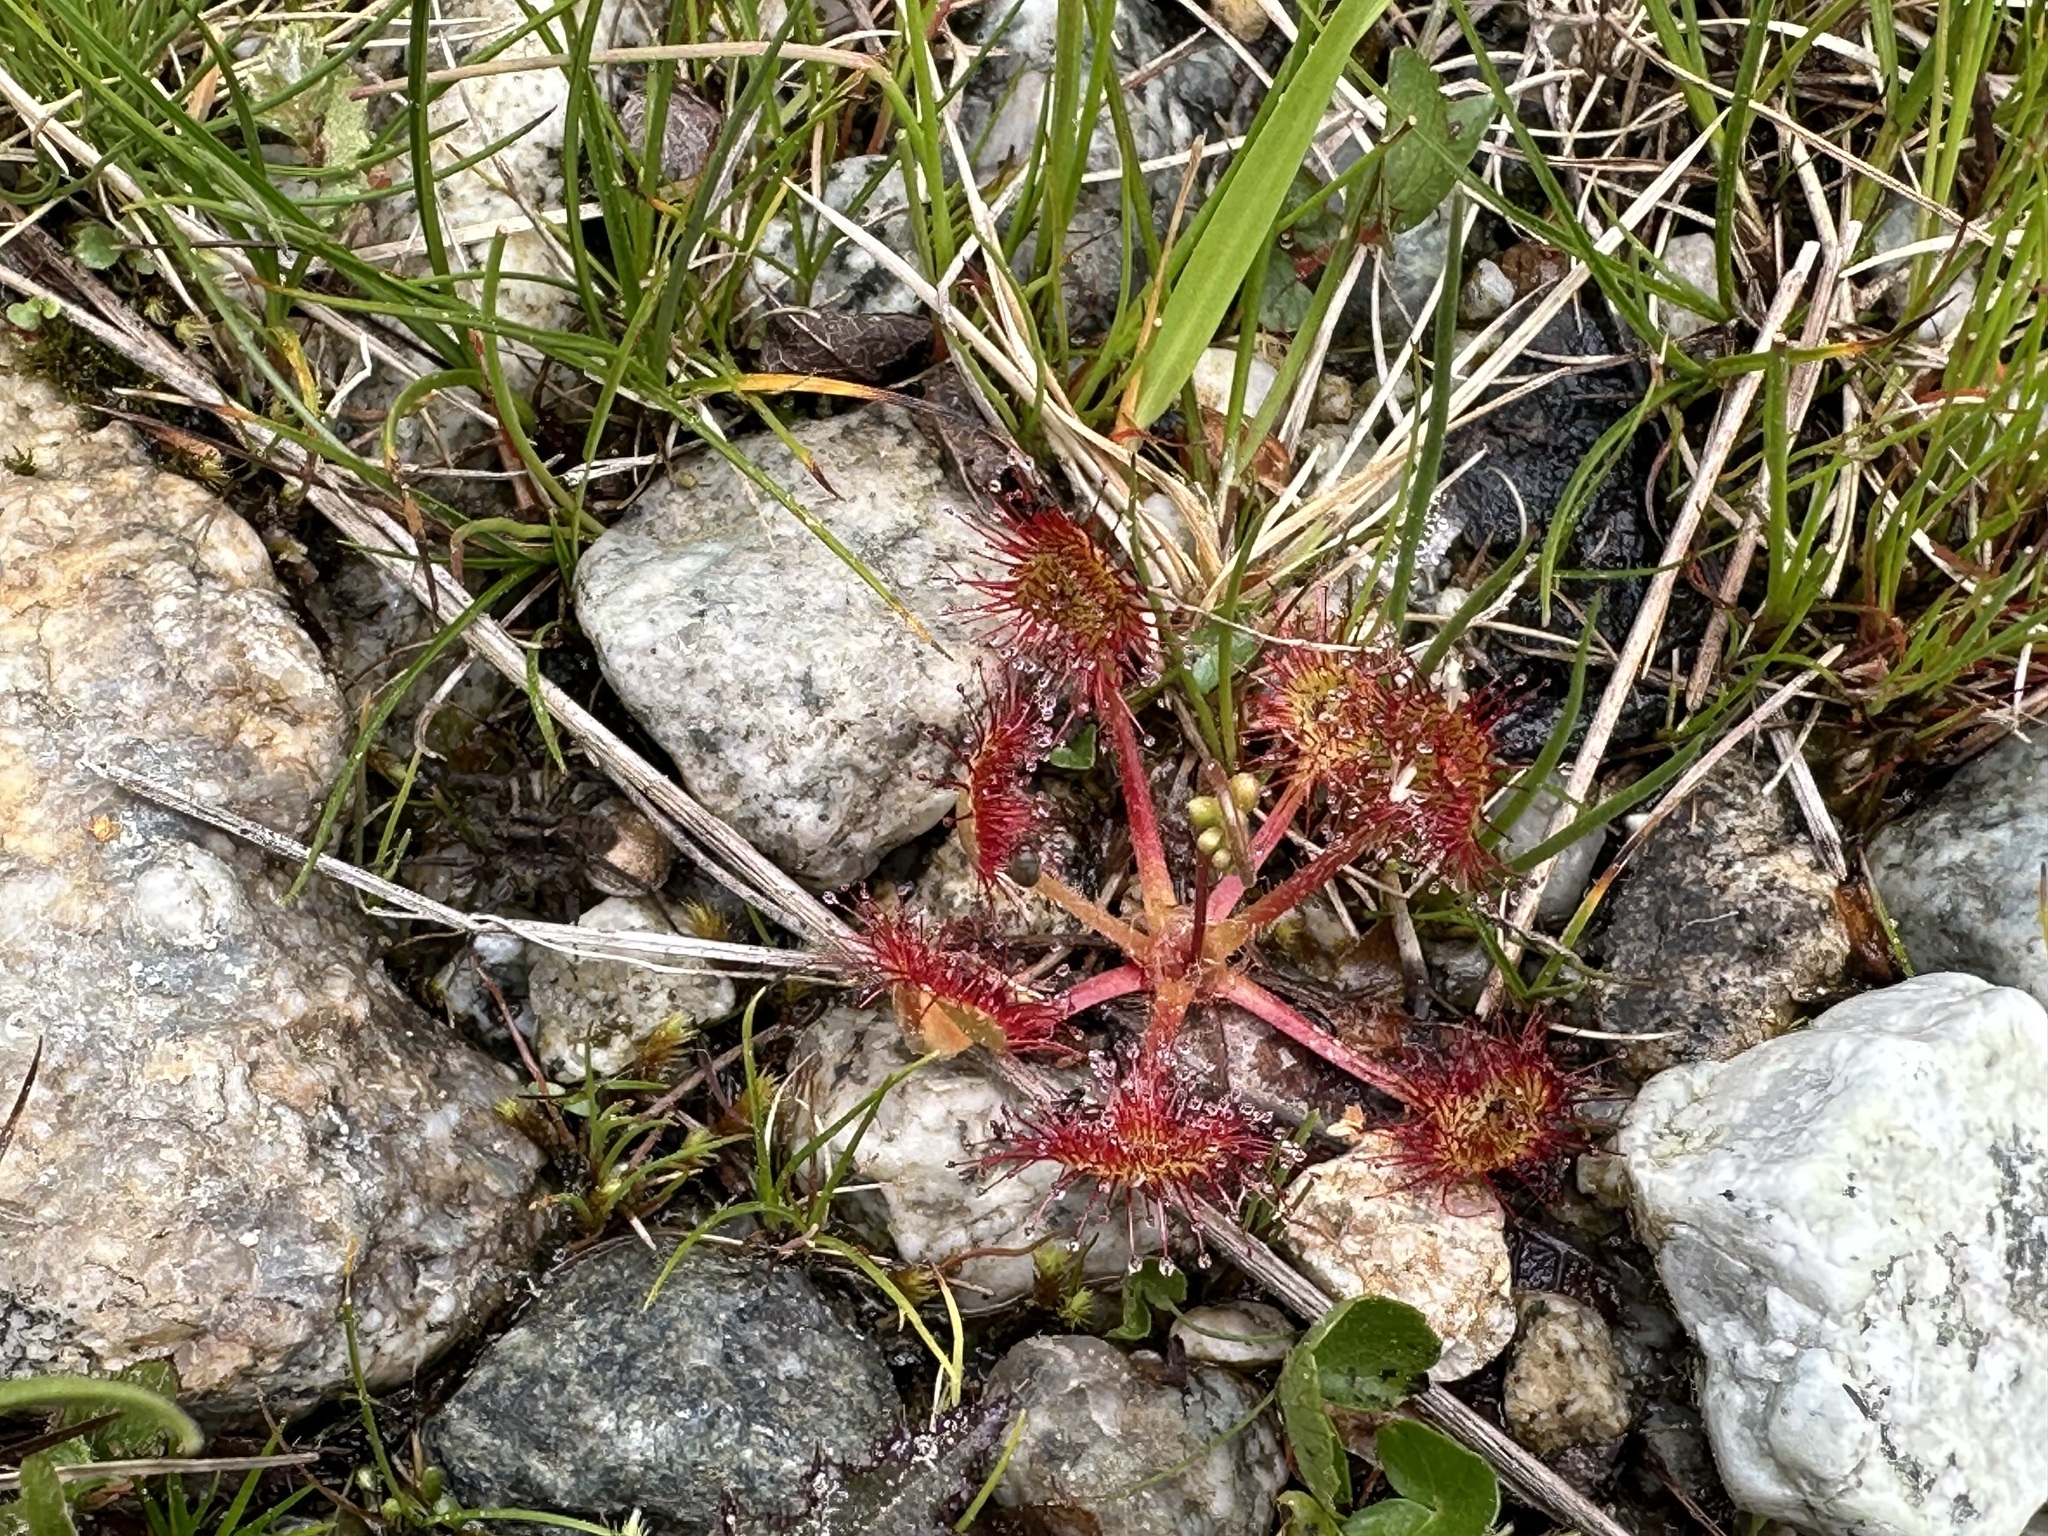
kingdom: Plantae
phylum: Tracheophyta
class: Magnoliopsida
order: Caryophyllales
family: Droseraceae
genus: Drosera
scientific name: Drosera rotundifolia
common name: Round-leaved sundew
